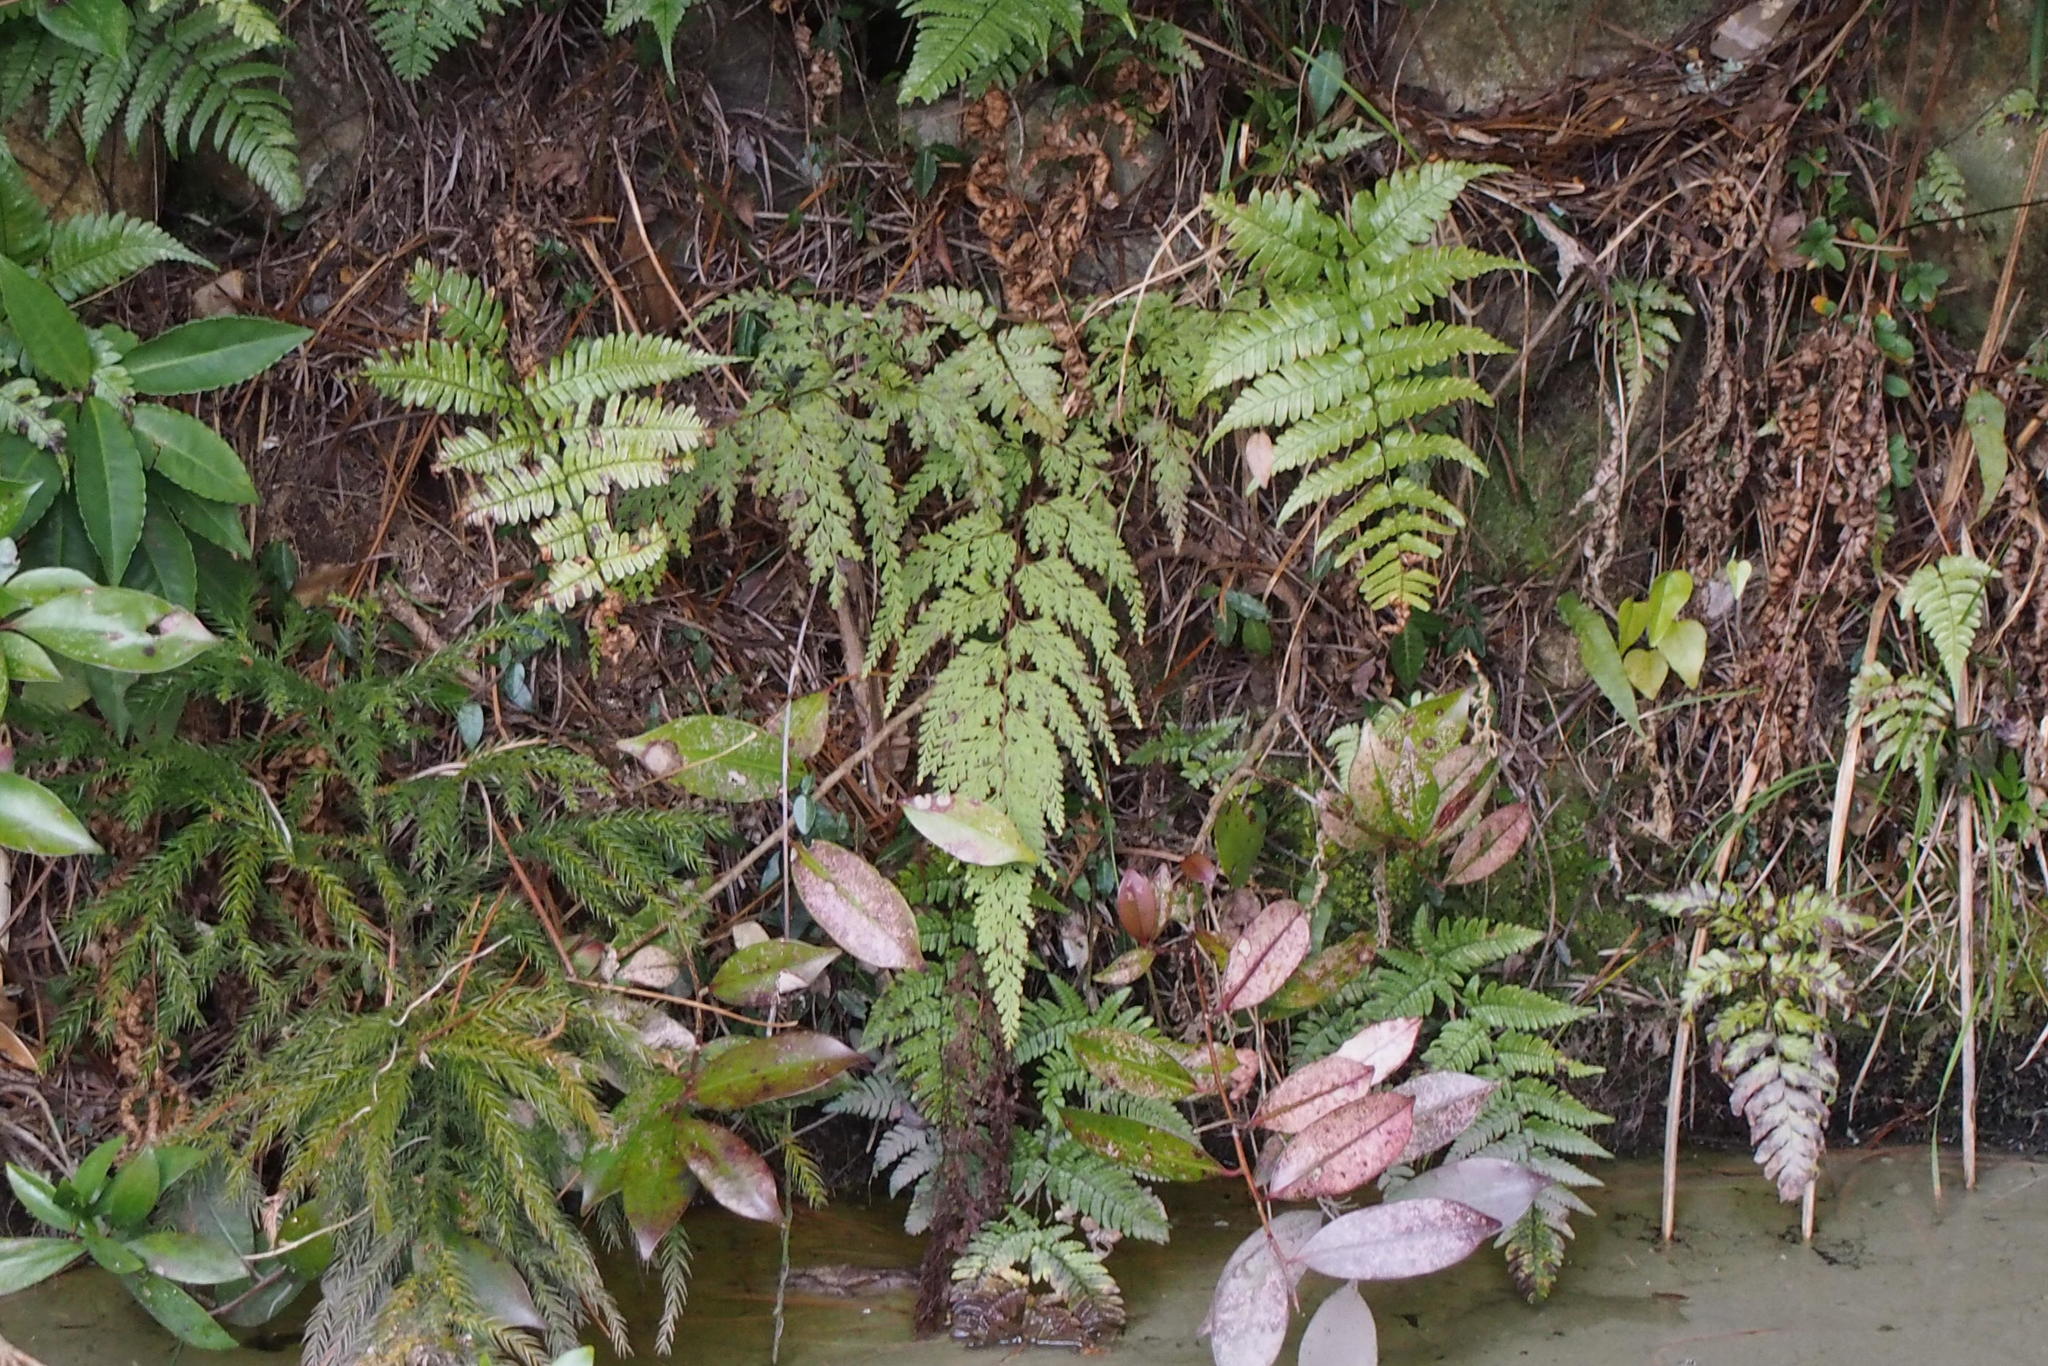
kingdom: Plantae
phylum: Tracheophyta
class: Polypodiopsida
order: Polypodiales
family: Lindsaeaceae
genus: Odontosoria
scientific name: Odontosoria chinensis
